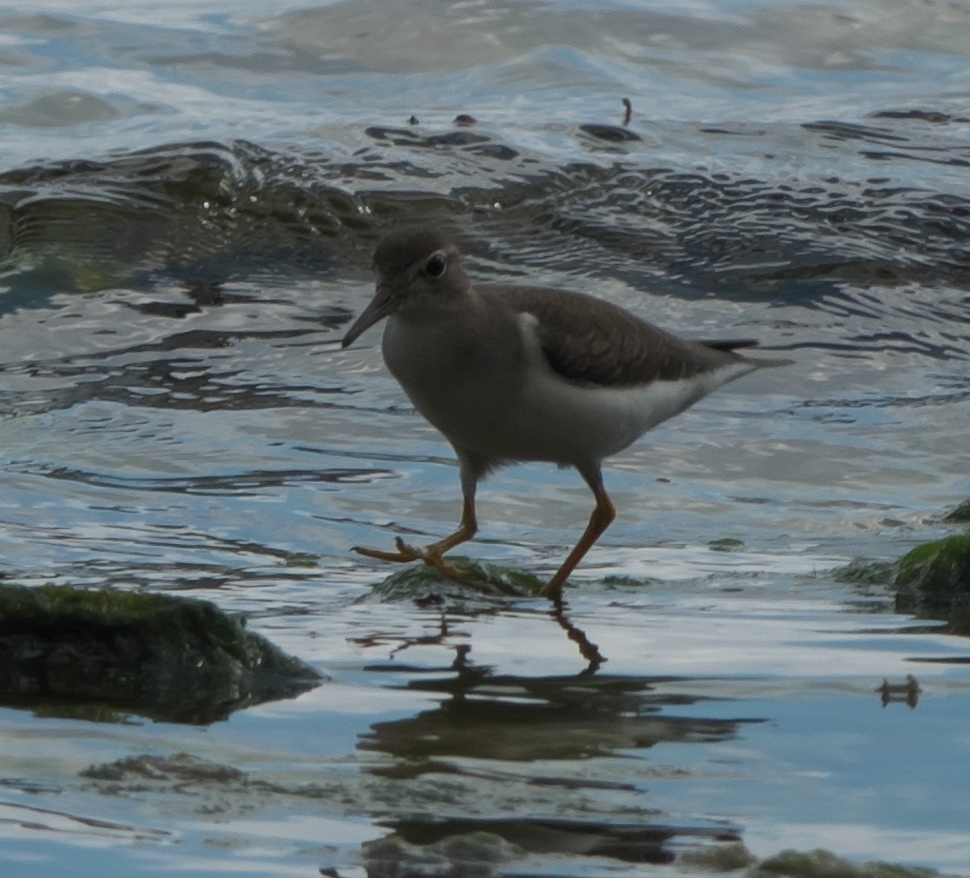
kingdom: Animalia
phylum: Chordata
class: Aves
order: Charadriiformes
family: Scolopacidae
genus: Actitis
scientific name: Actitis macularius
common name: Spotted sandpiper
